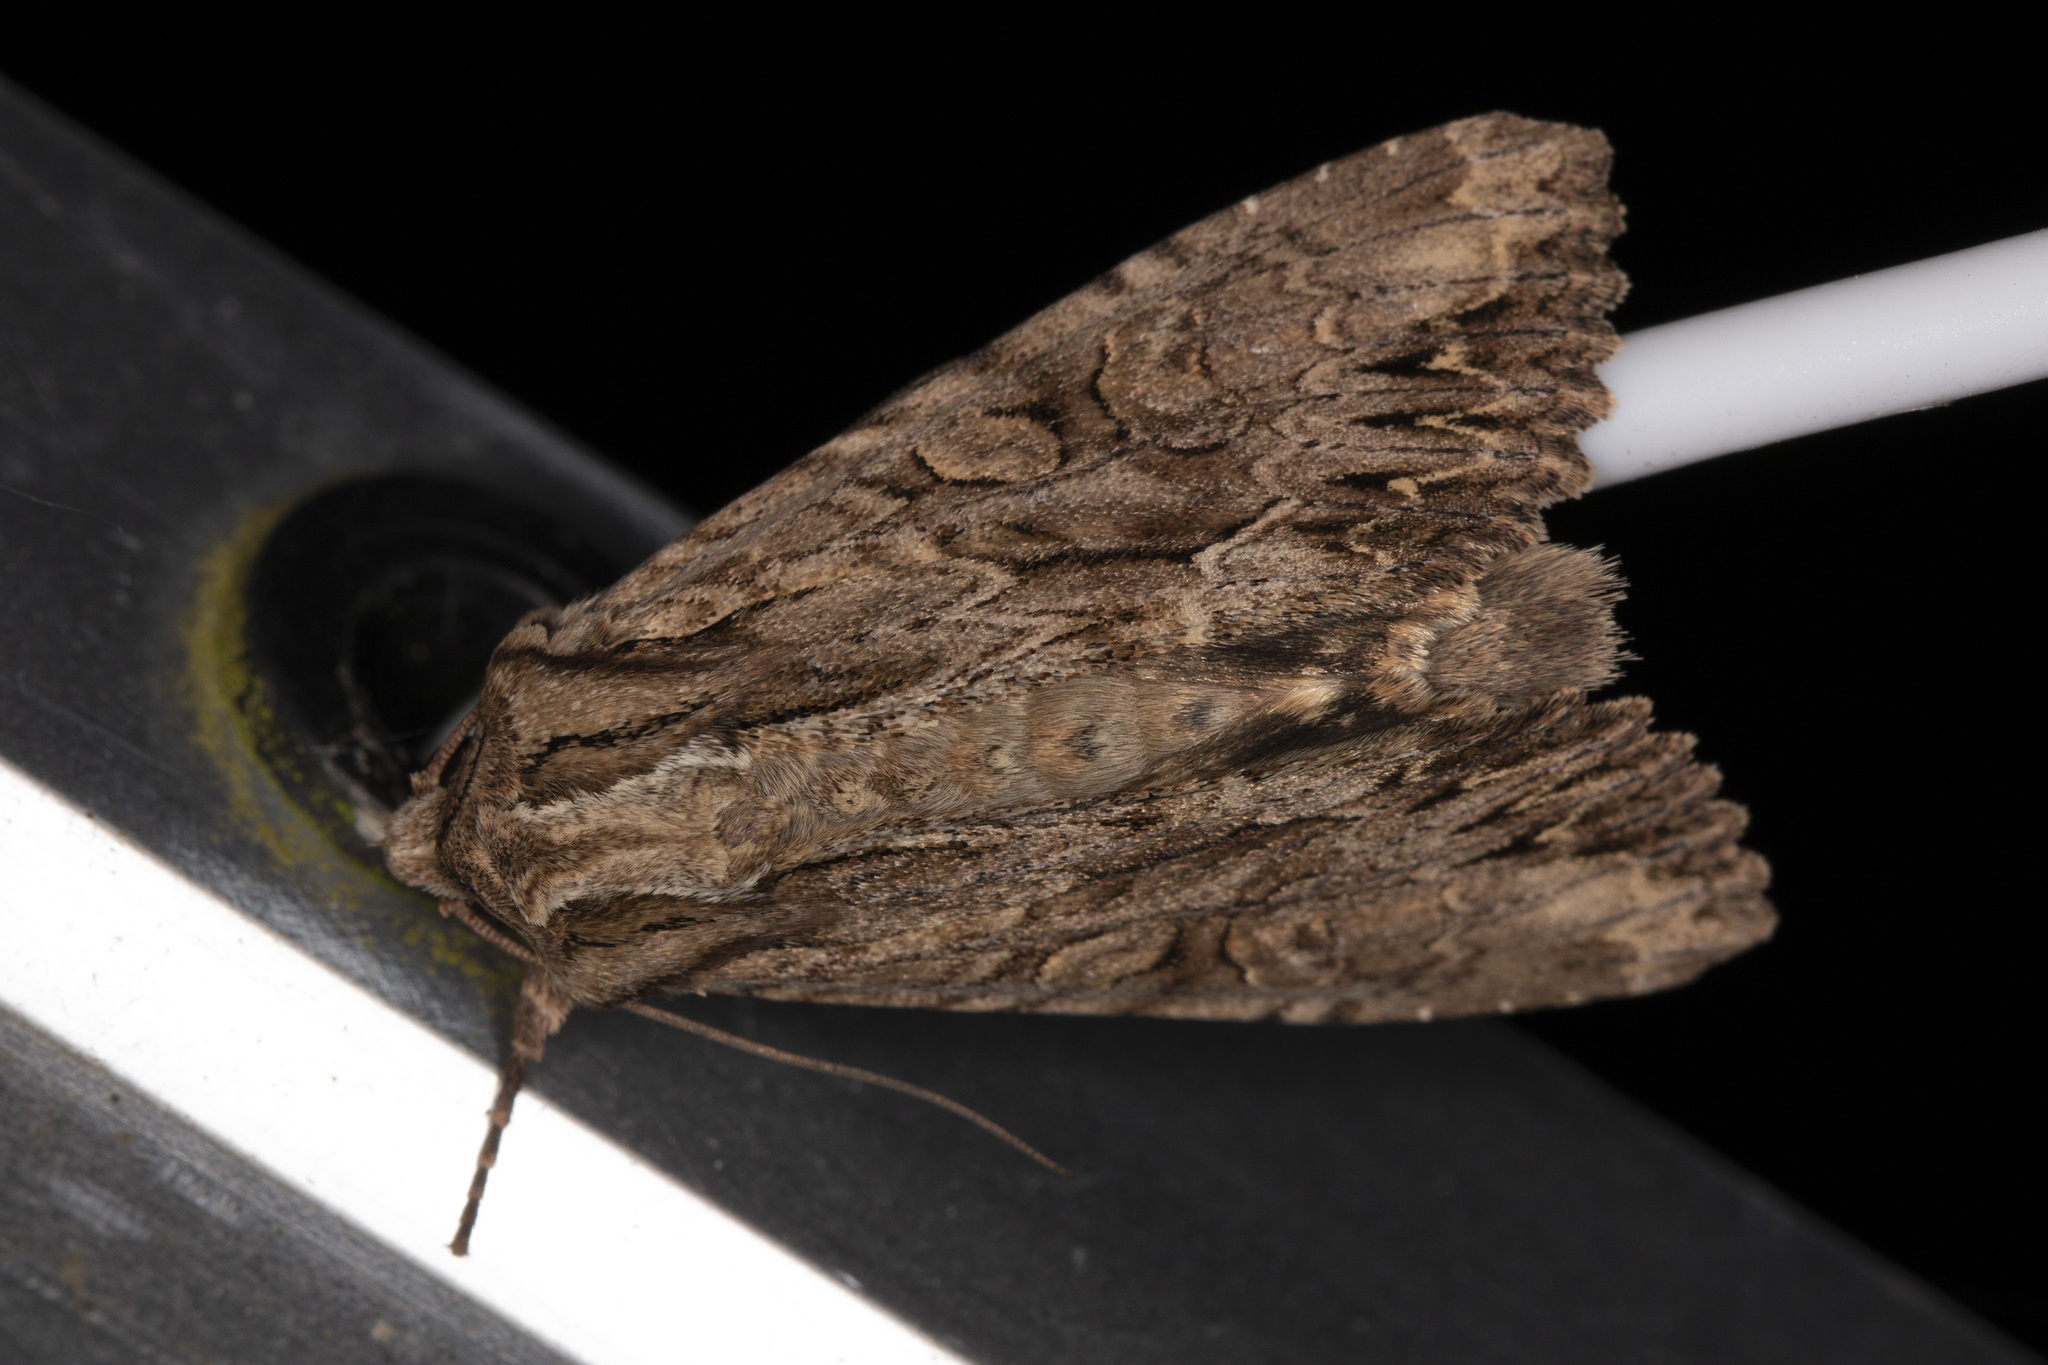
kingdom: Animalia
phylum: Arthropoda
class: Insecta
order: Lepidoptera
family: Noctuidae
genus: Apamea
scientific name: Apamea monoglypha
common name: Dark arches
